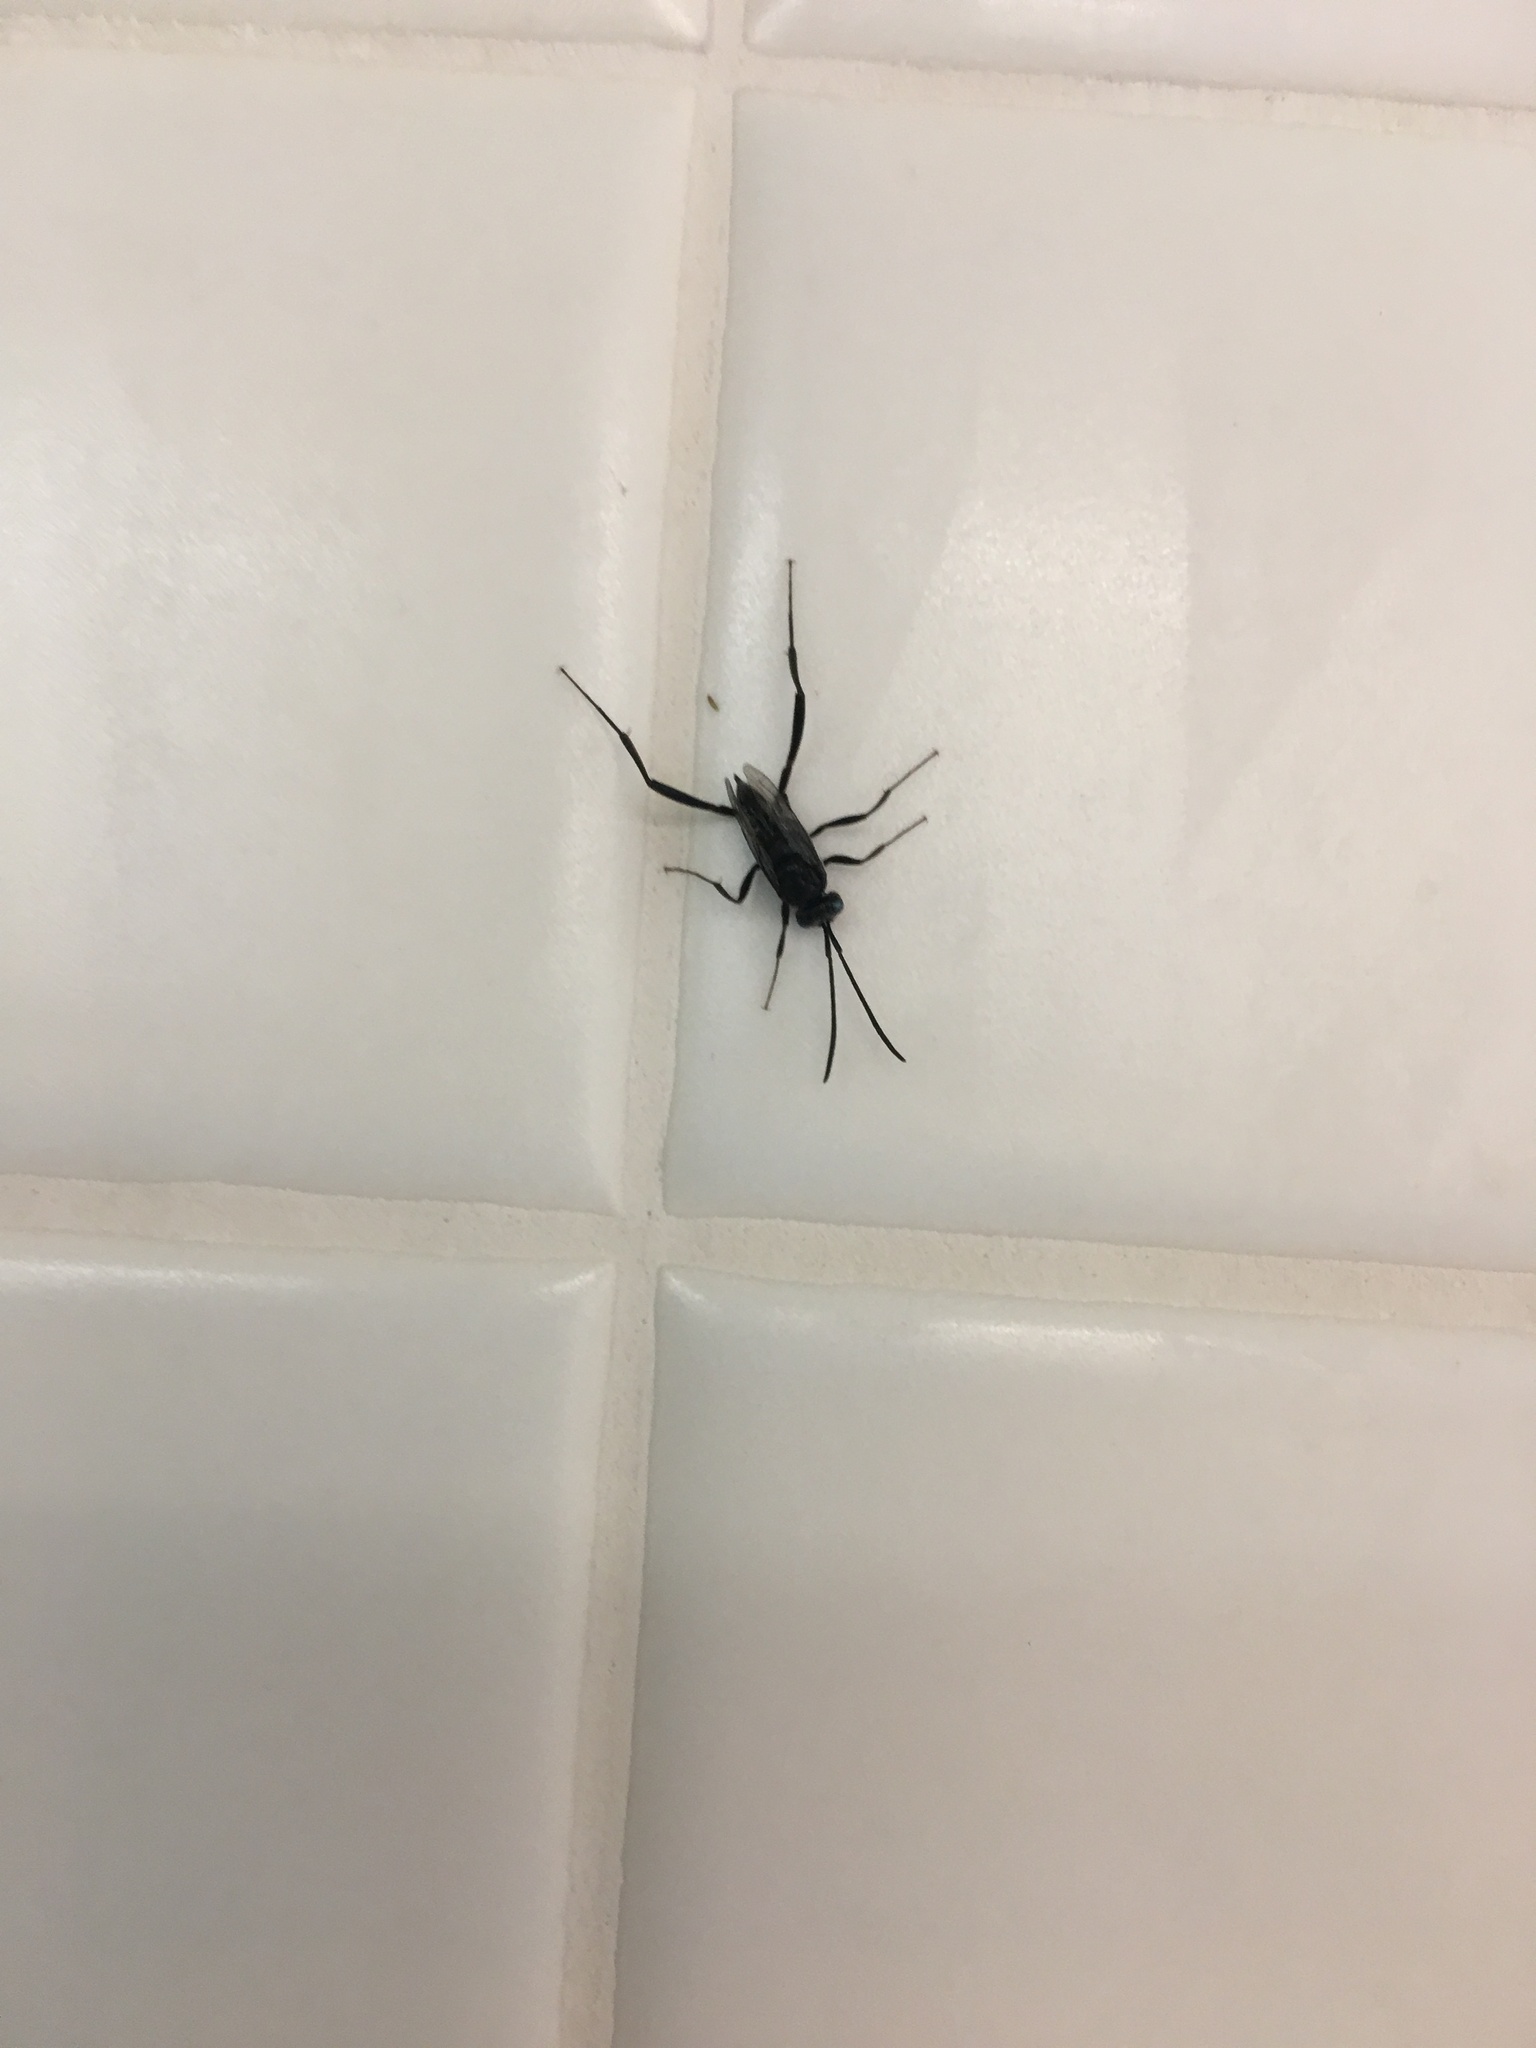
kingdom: Animalia
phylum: Arthropoda
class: Insecta
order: Hymenoptera
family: Evaniidae
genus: Evania
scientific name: Evania appendigaster
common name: Ensign wasp
